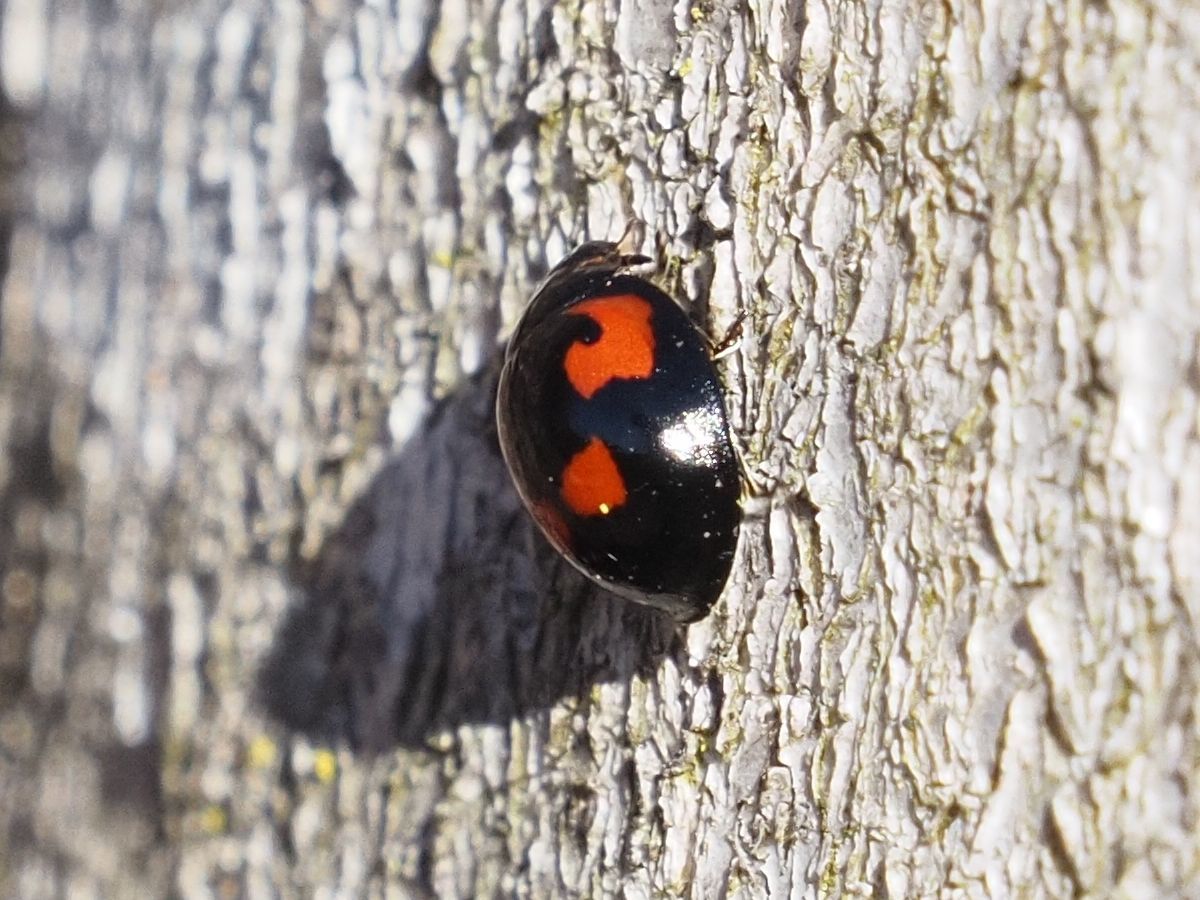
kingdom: Animalia
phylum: Arthropoda
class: Insecta
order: Coleoptera
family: Coccinellidae
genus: Brumus
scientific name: Brumus quadripustulatus
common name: Ladybird beetle
